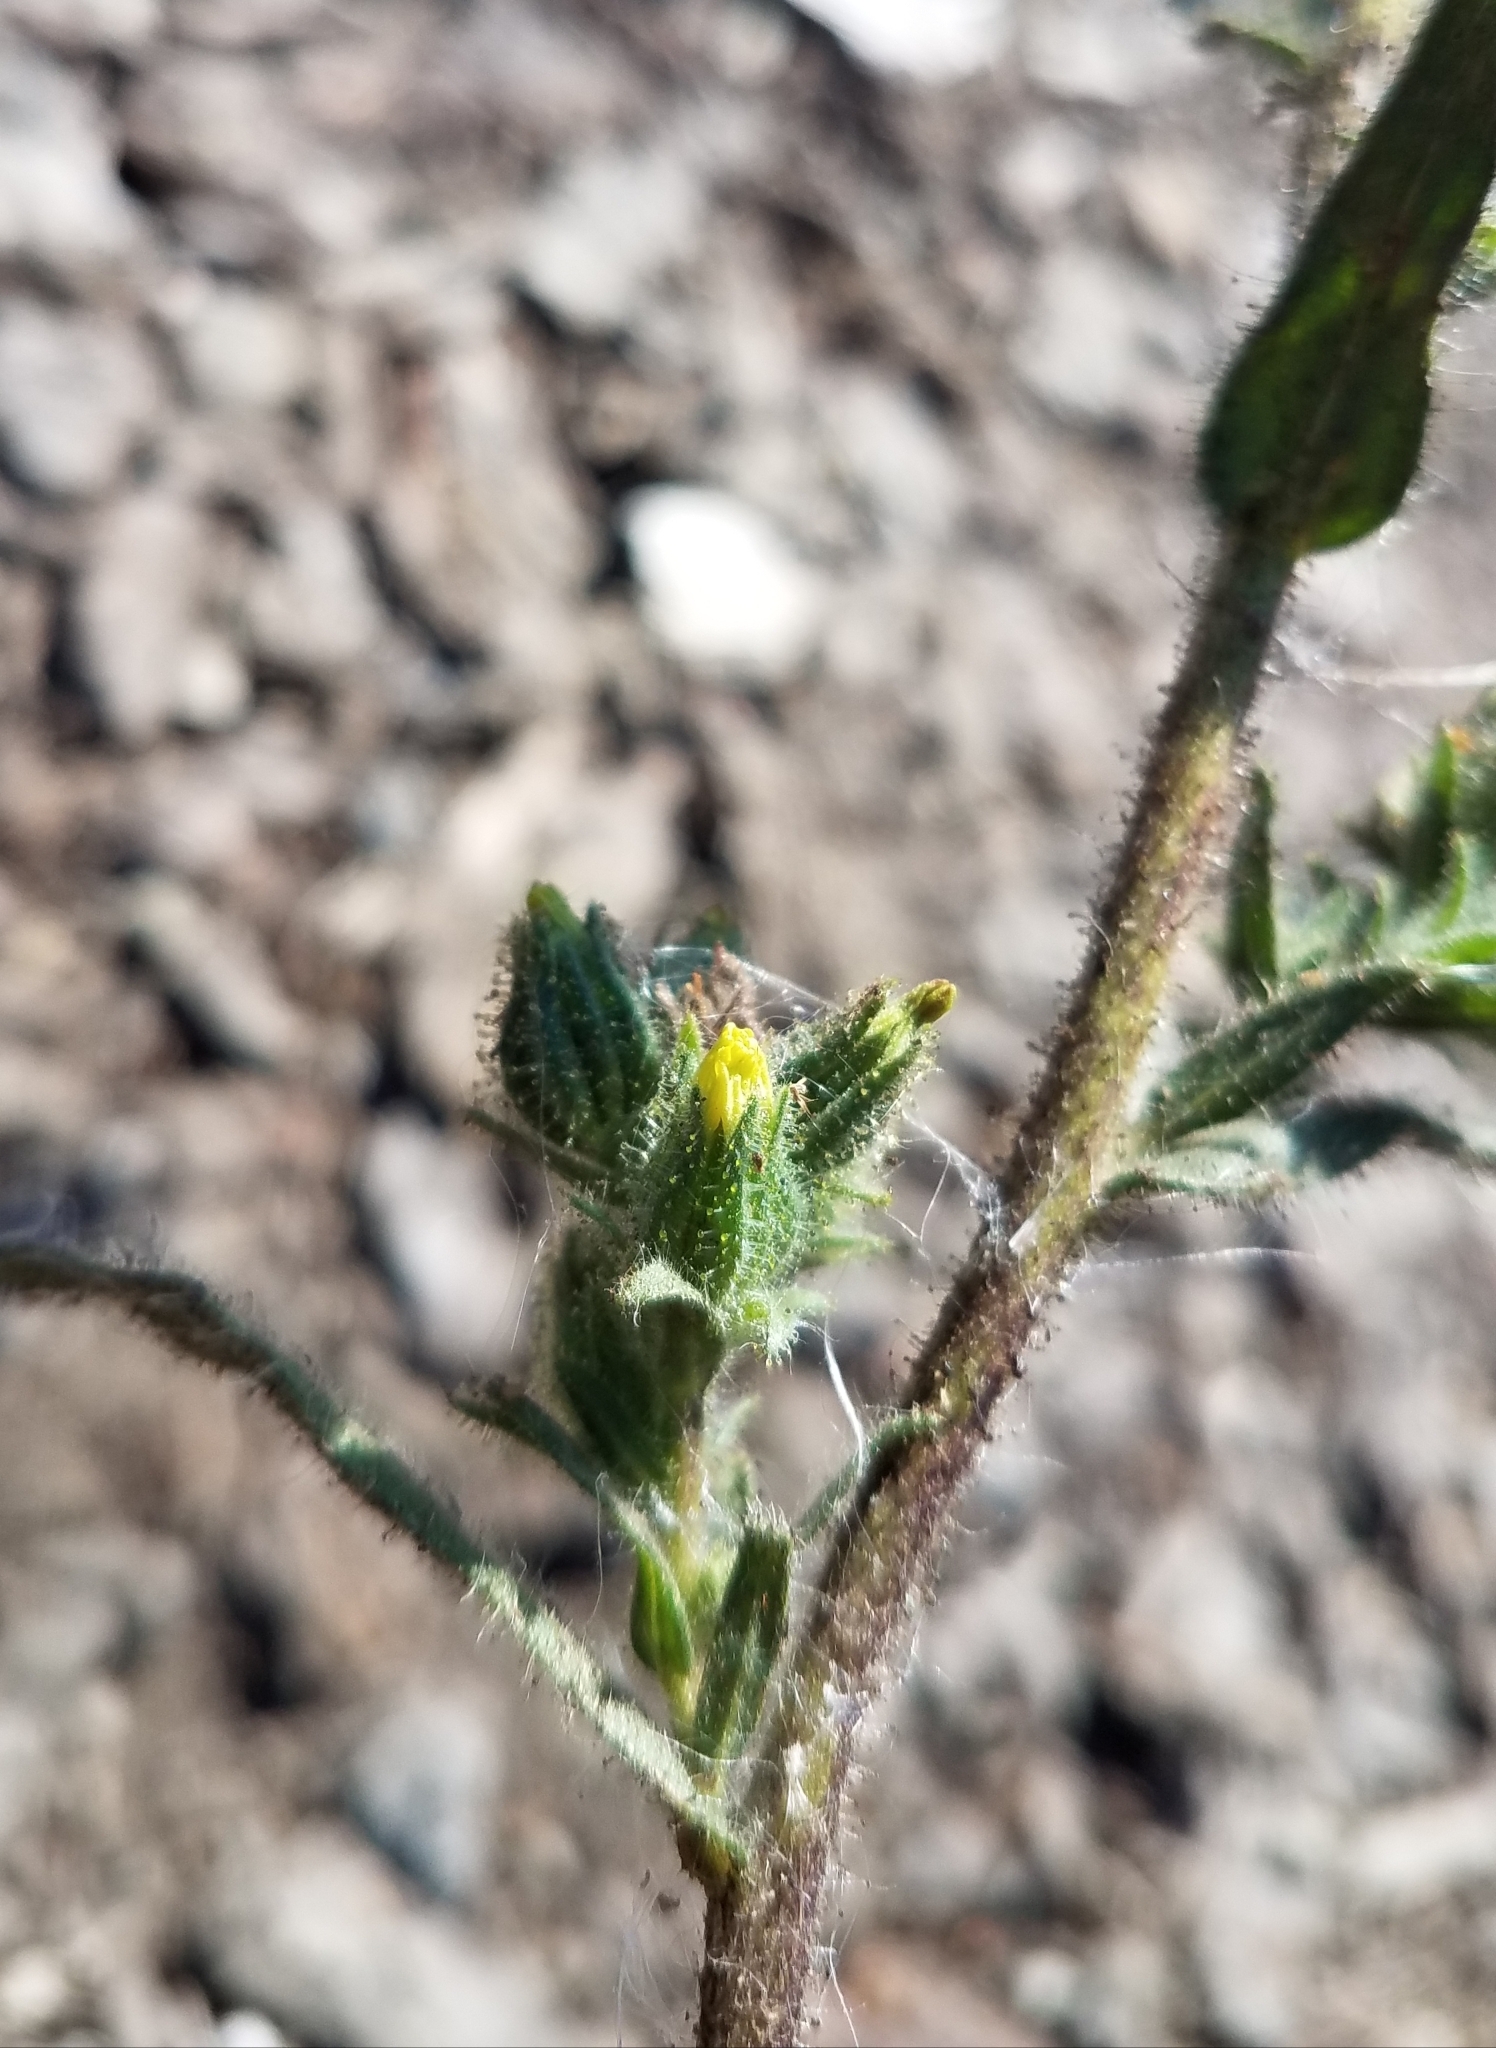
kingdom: Plantae
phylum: Tracheophyta
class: Magnoliopsida
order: Asterales
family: Asteraceae
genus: Madia
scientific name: Madia gracilis
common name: Grassy tarweed
